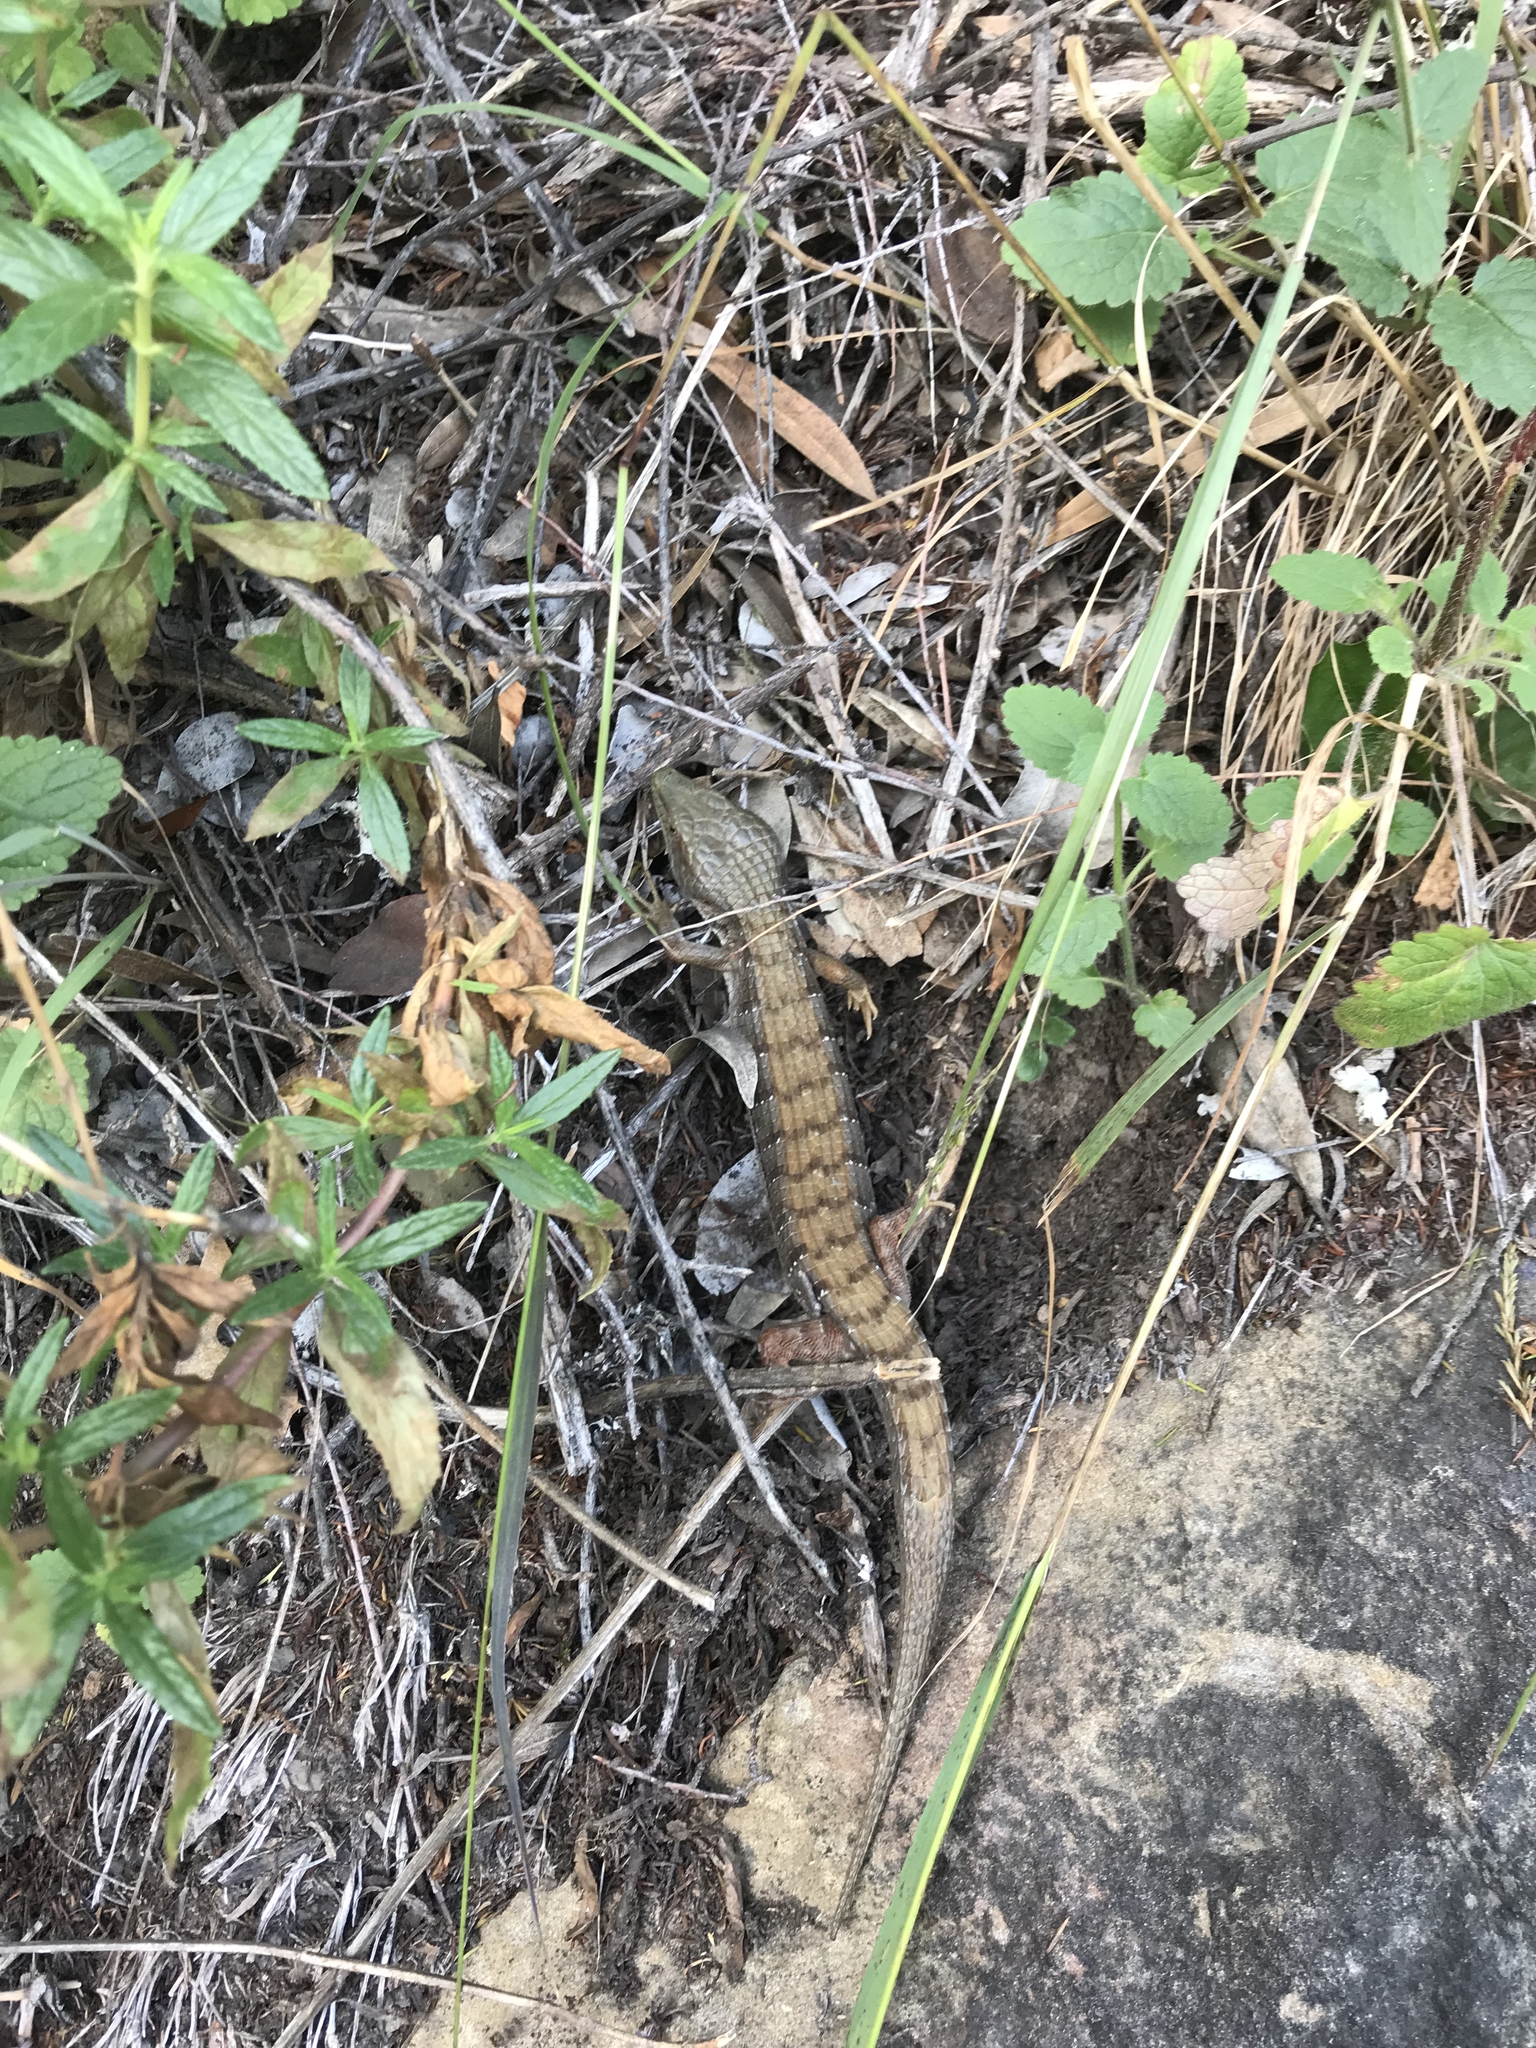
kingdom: Animalia
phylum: Chordata
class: Squamata
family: Anguidae
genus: Elgaria
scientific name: Elgaria multicarinata
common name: Southern alligator lizard
